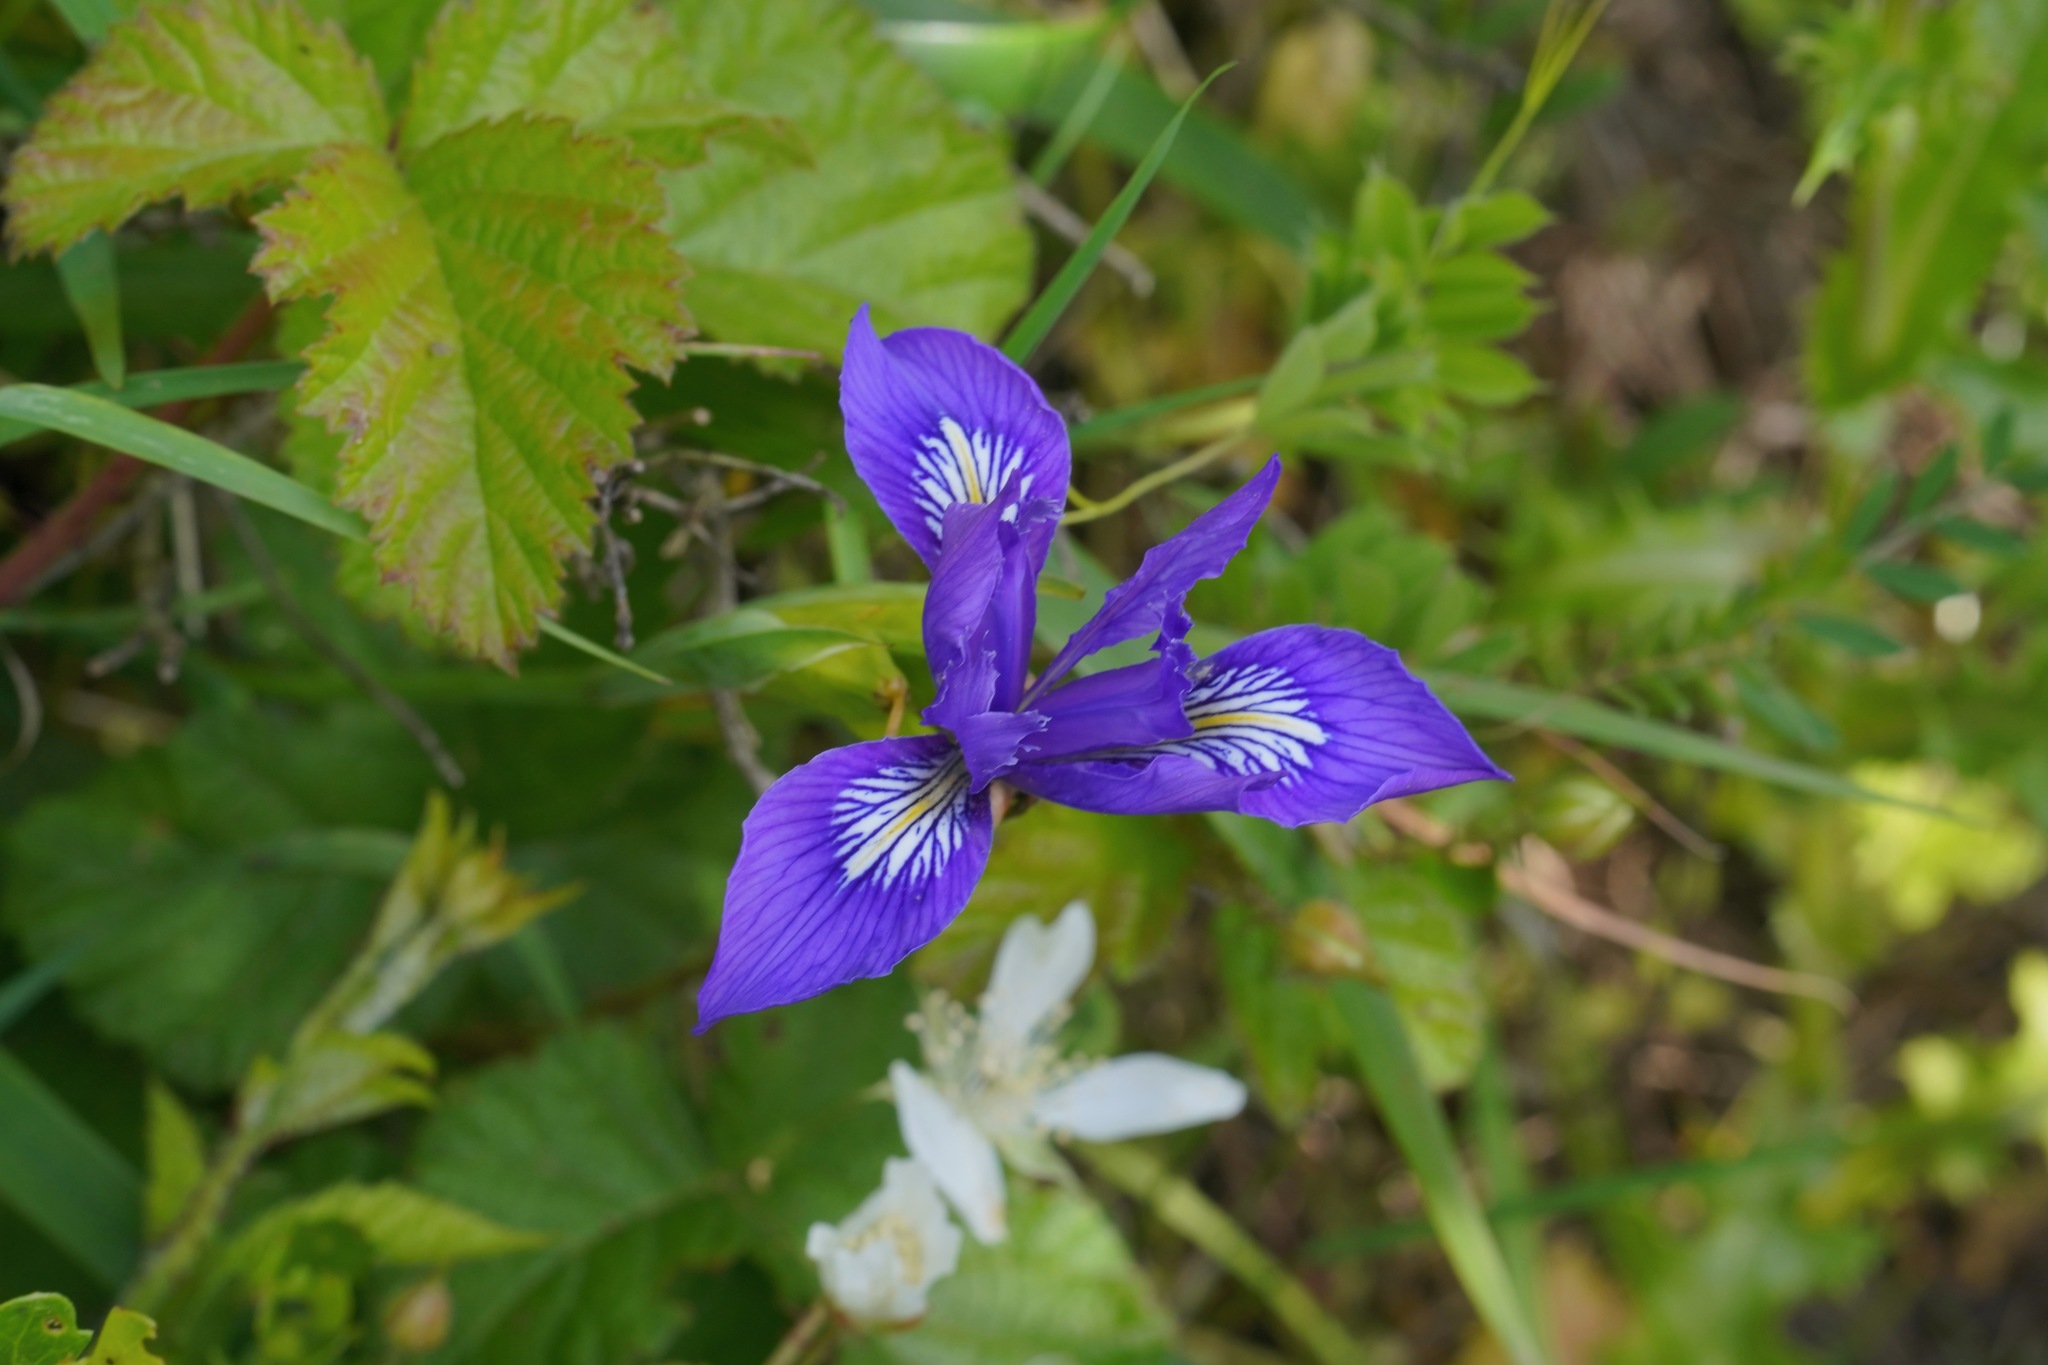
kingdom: Plantae
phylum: Tracheophyta
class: Liliopsida
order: Asparagales
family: Iridaceae
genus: Iris
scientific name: Iris douglasiana
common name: Marin iris
